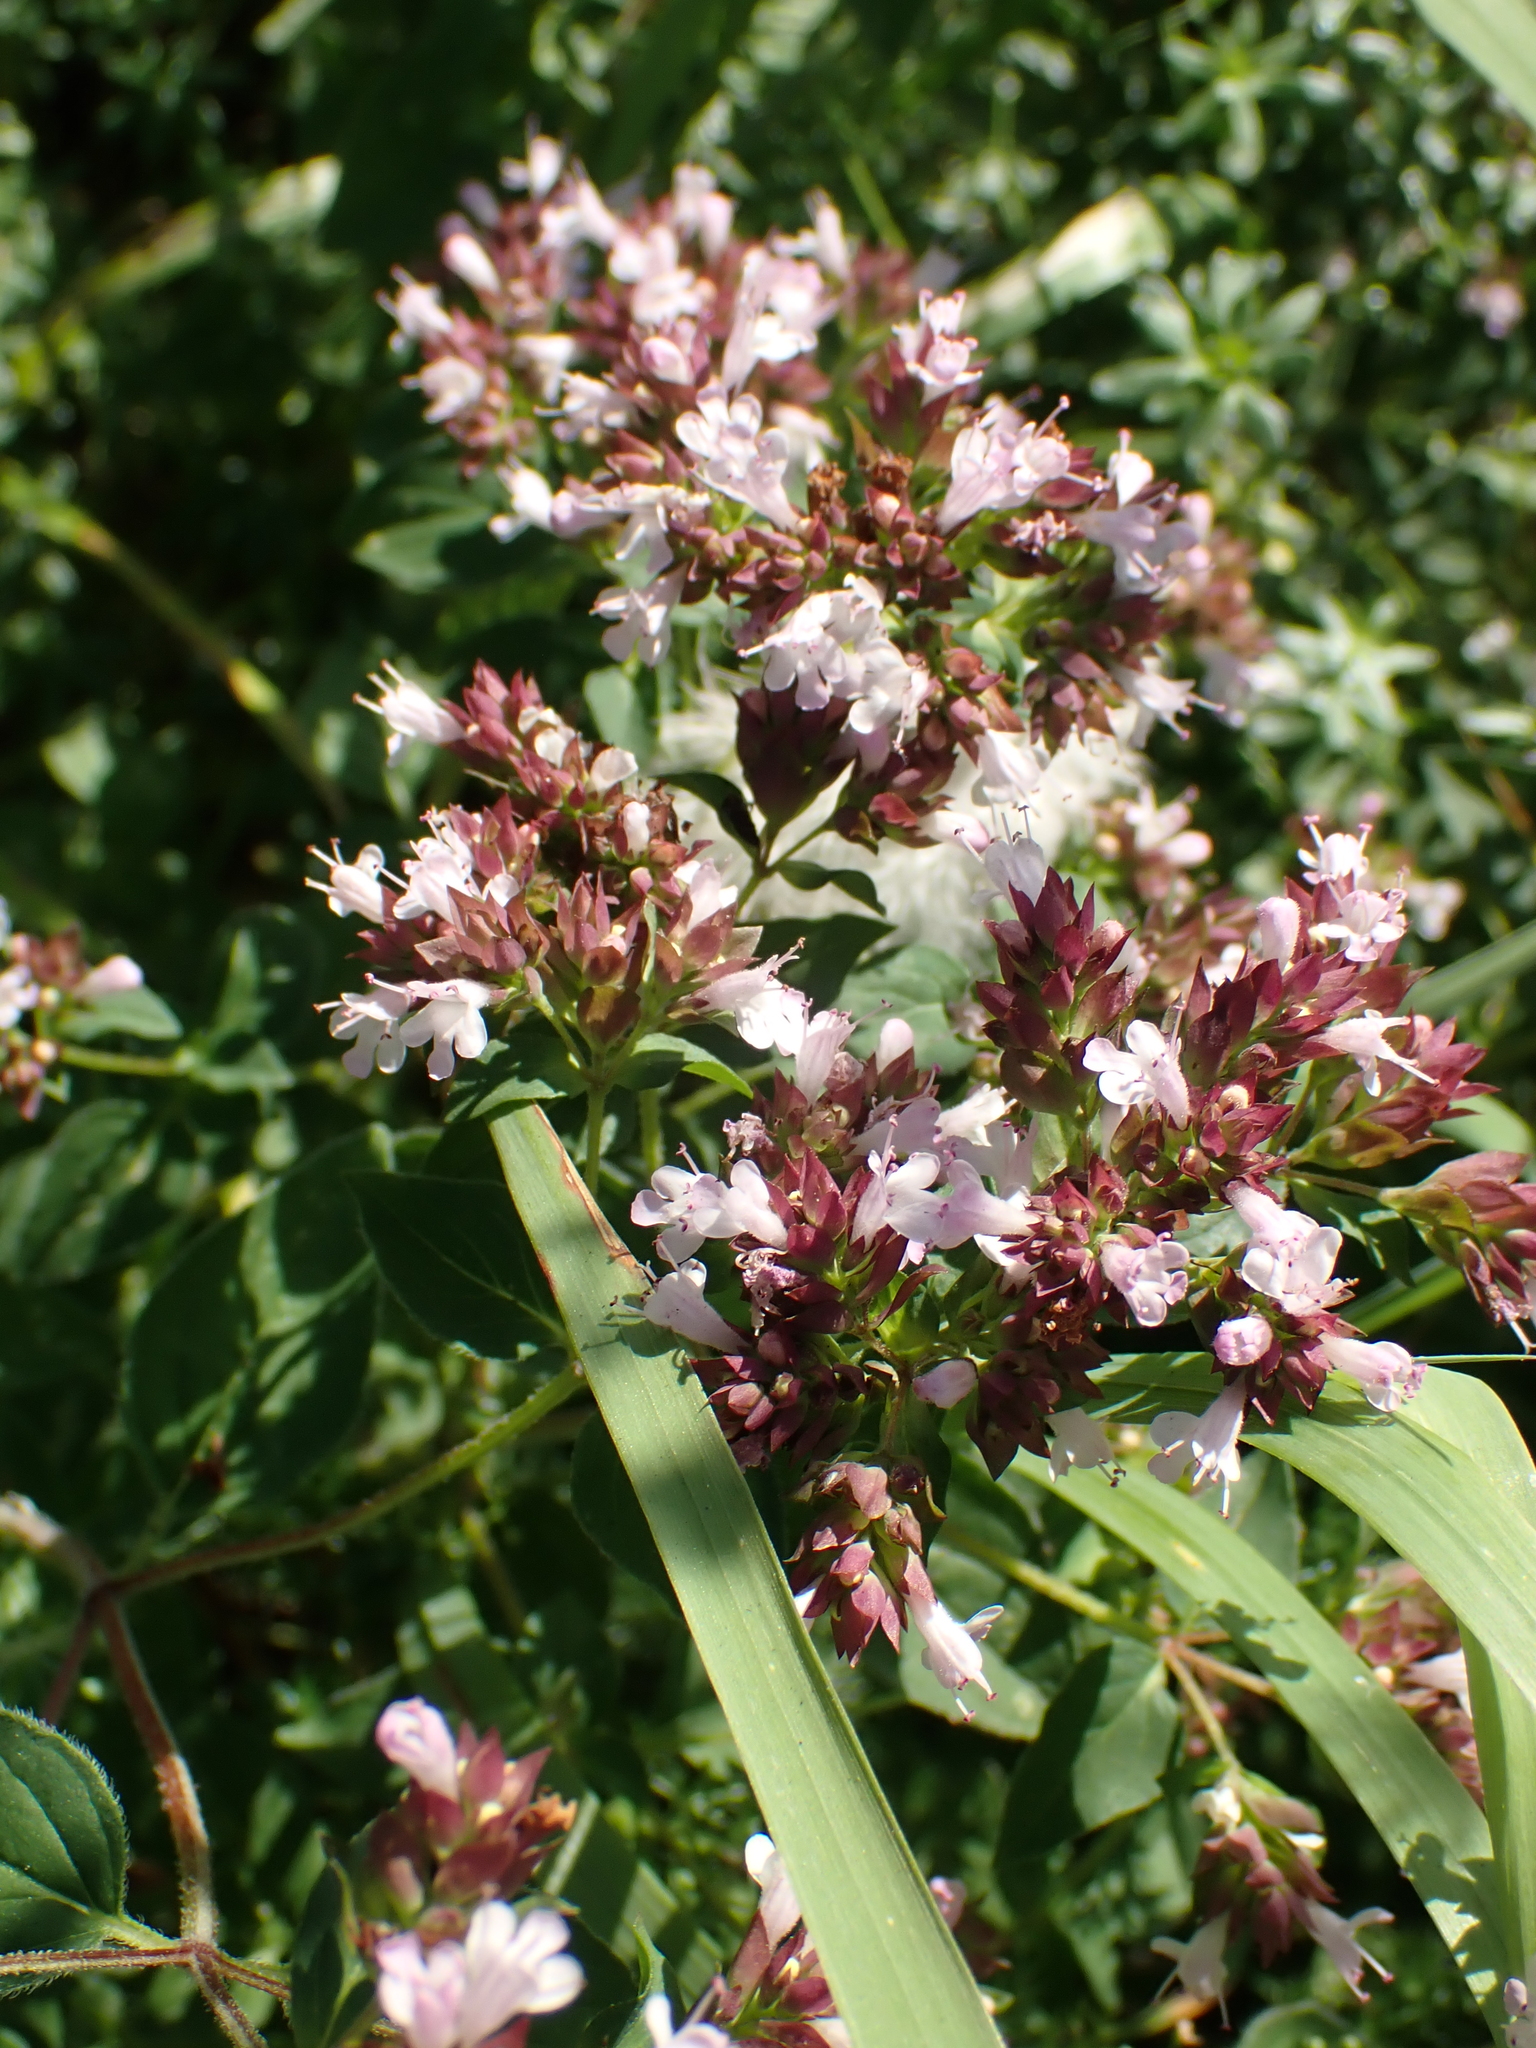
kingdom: Plantae
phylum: Tracheophyta
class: Magnoliopsida
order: Lamiales
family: Lamiaceae
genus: Origanum
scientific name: Origanum vulgare
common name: Wild marjoram
